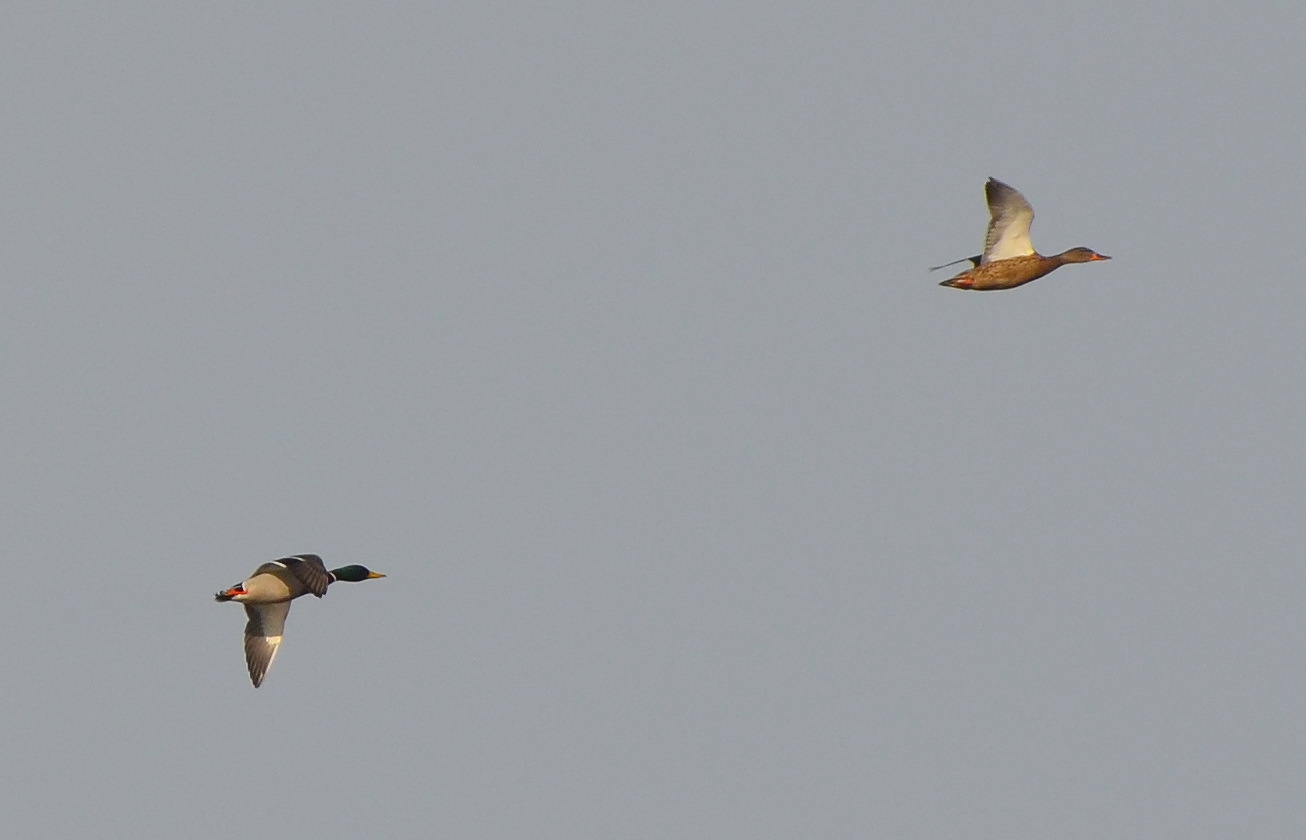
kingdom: Animalia
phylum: Chordata
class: Aves
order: Anseriformes
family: Anatidae
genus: Anas
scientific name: Anas platyrhynchos
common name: Mallard
